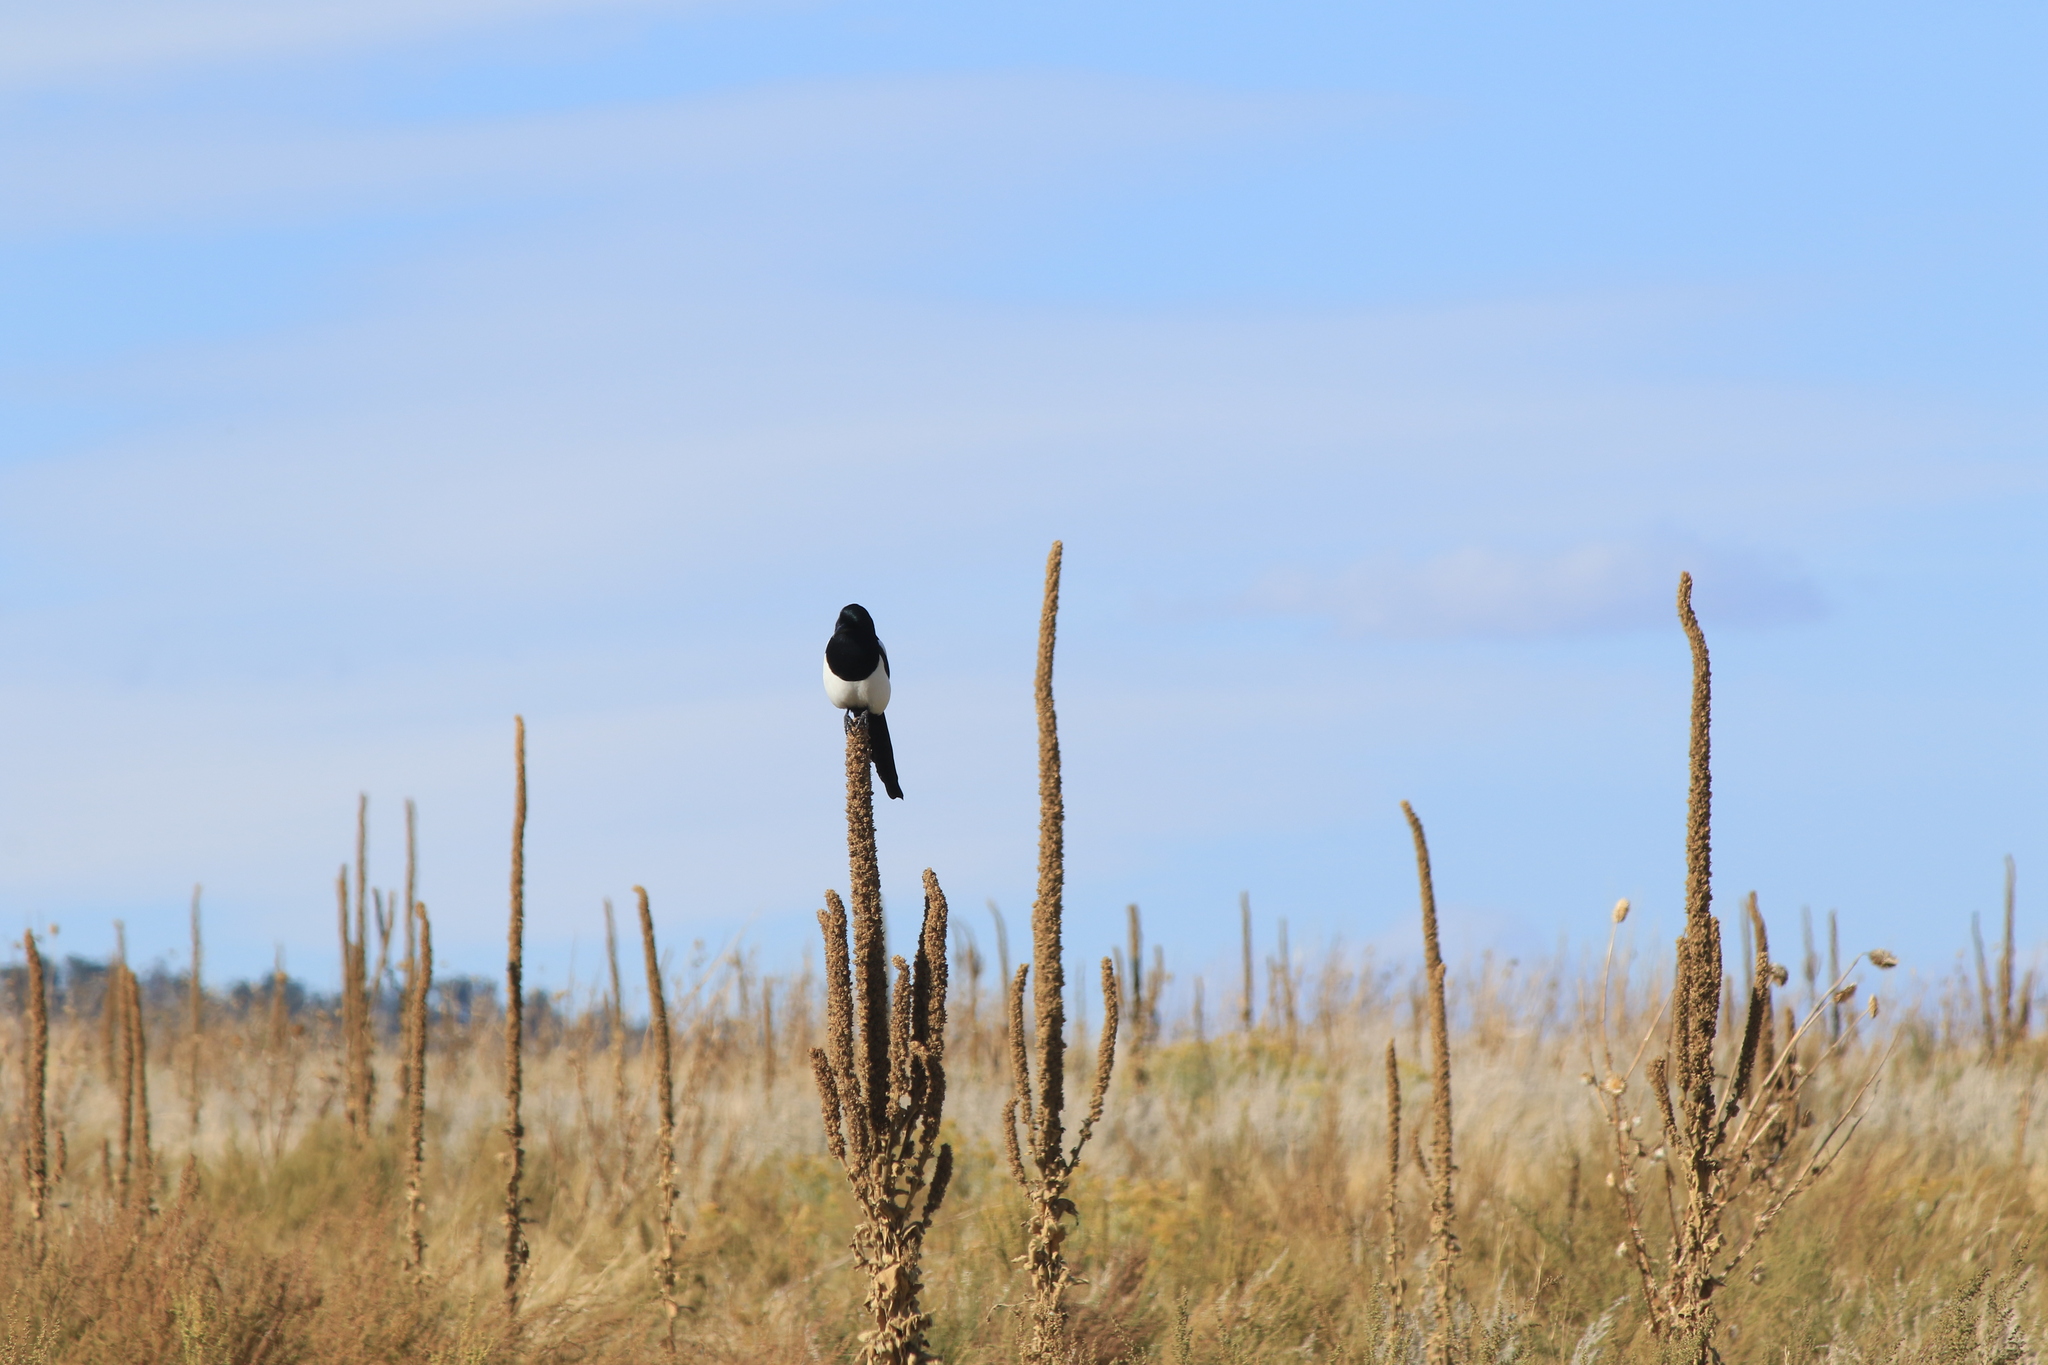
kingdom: Animalia
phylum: Chordata
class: Aves
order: Passeriformes
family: Corvidae
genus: Pica
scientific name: Pica hudsonia
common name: Black-billed magpie
